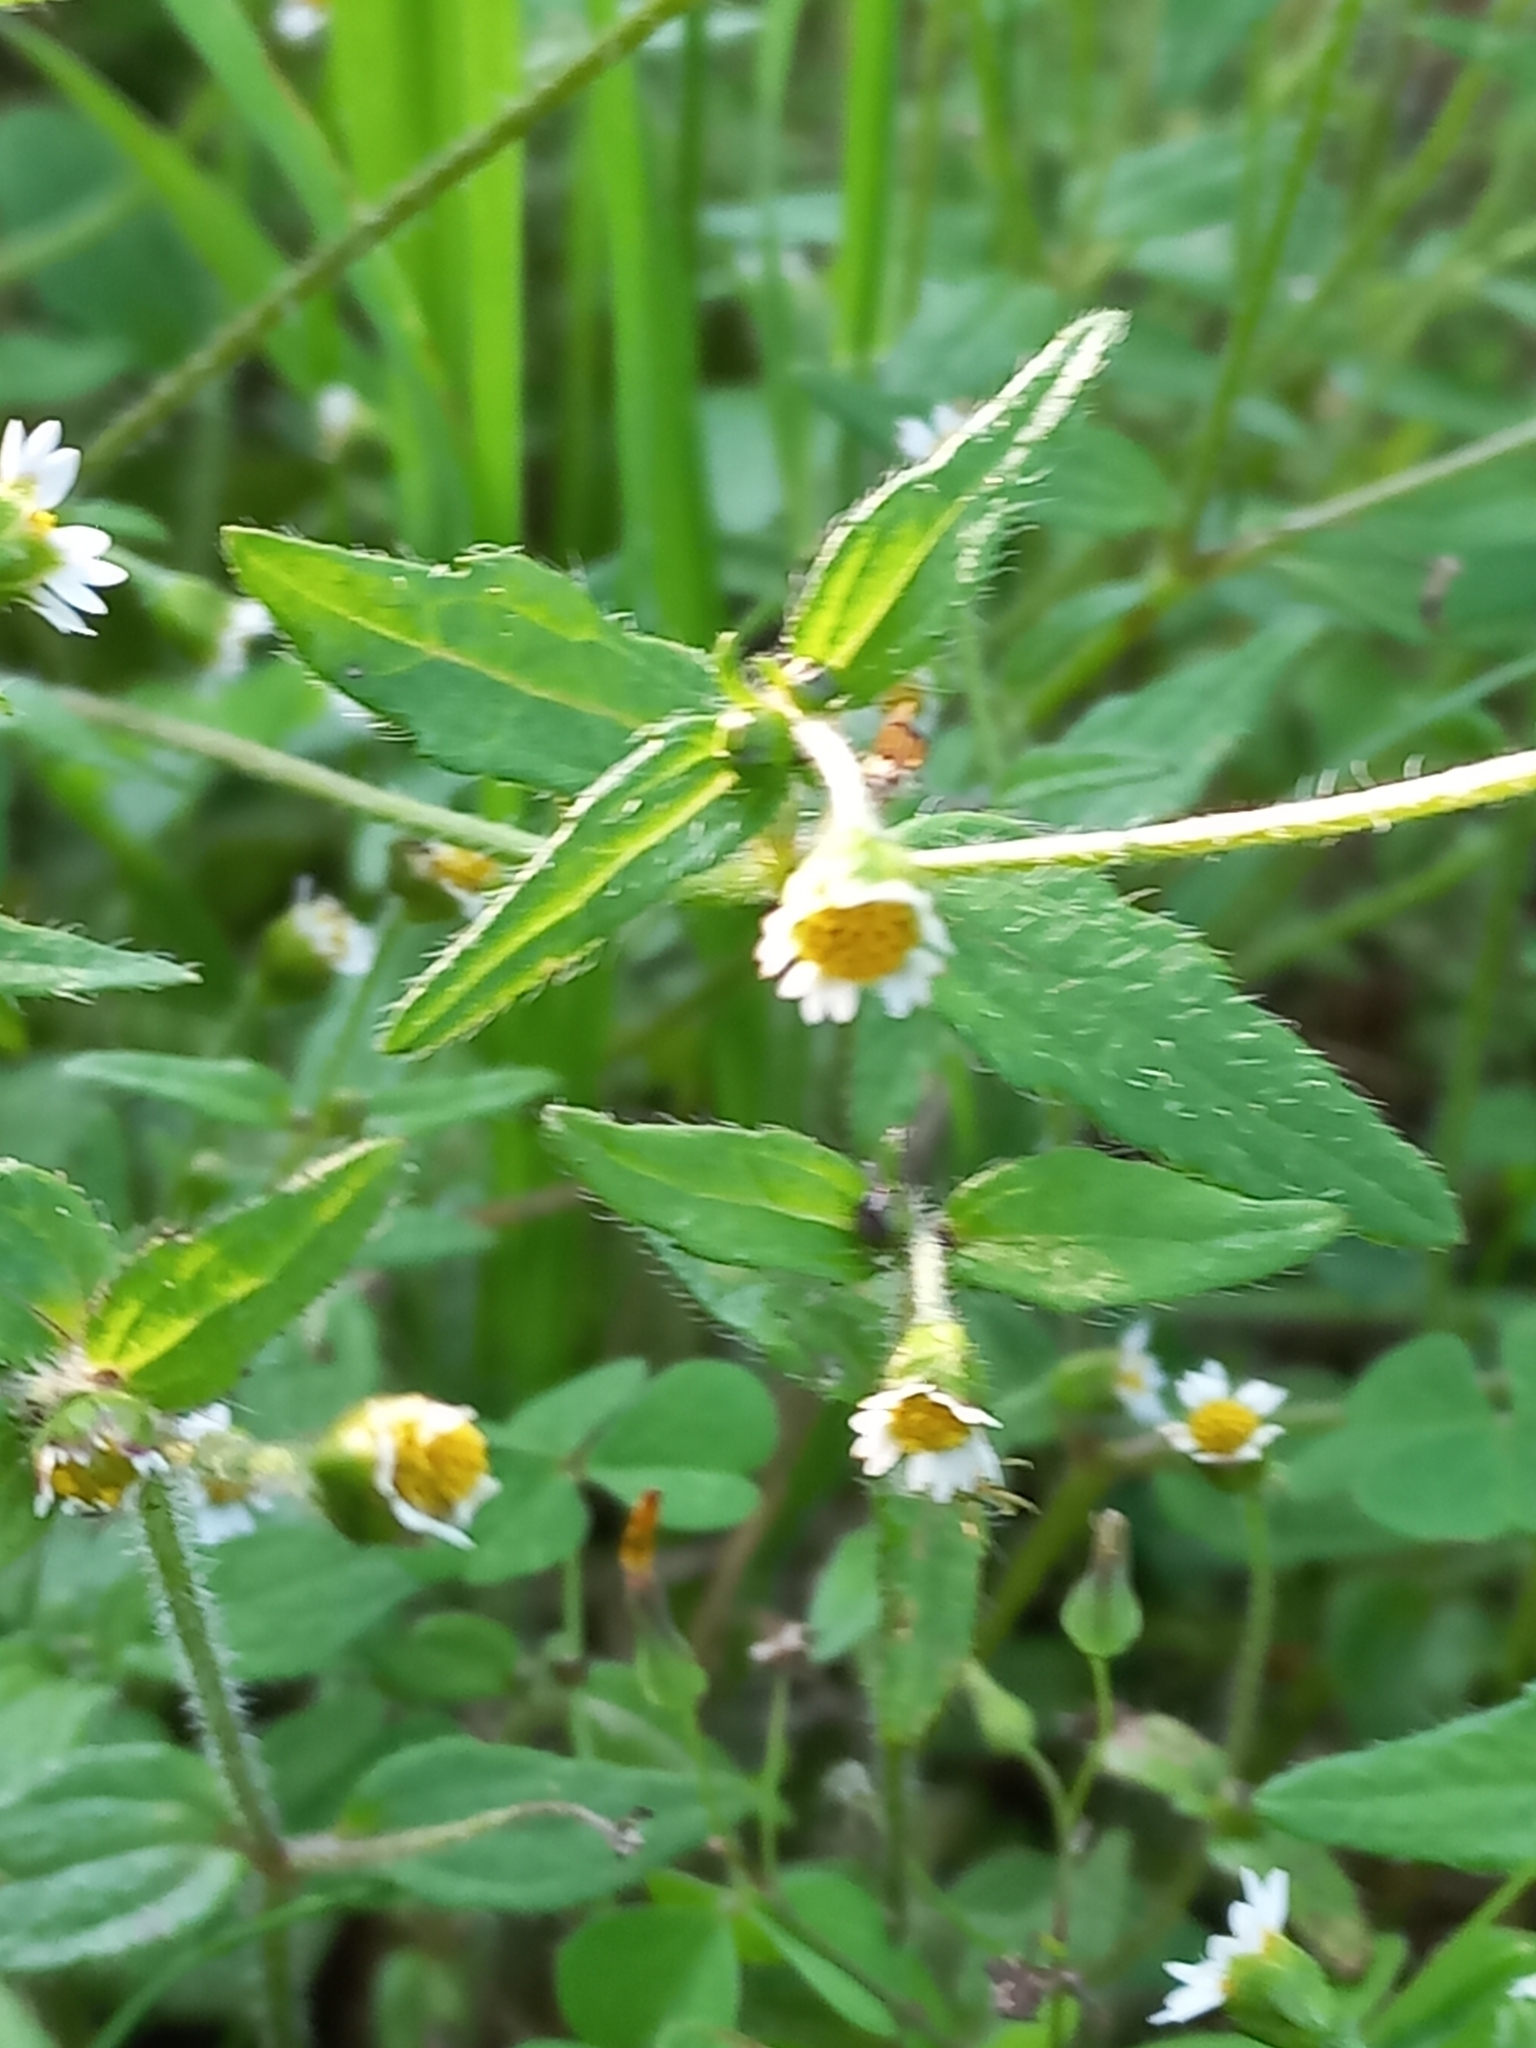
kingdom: Plantae
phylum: Tracheophyta
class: Magnoliopsida
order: Asterales
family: Asteraceae
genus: Galinsoga
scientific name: Galinsoga quadriradiata
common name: Shaggy soldier
